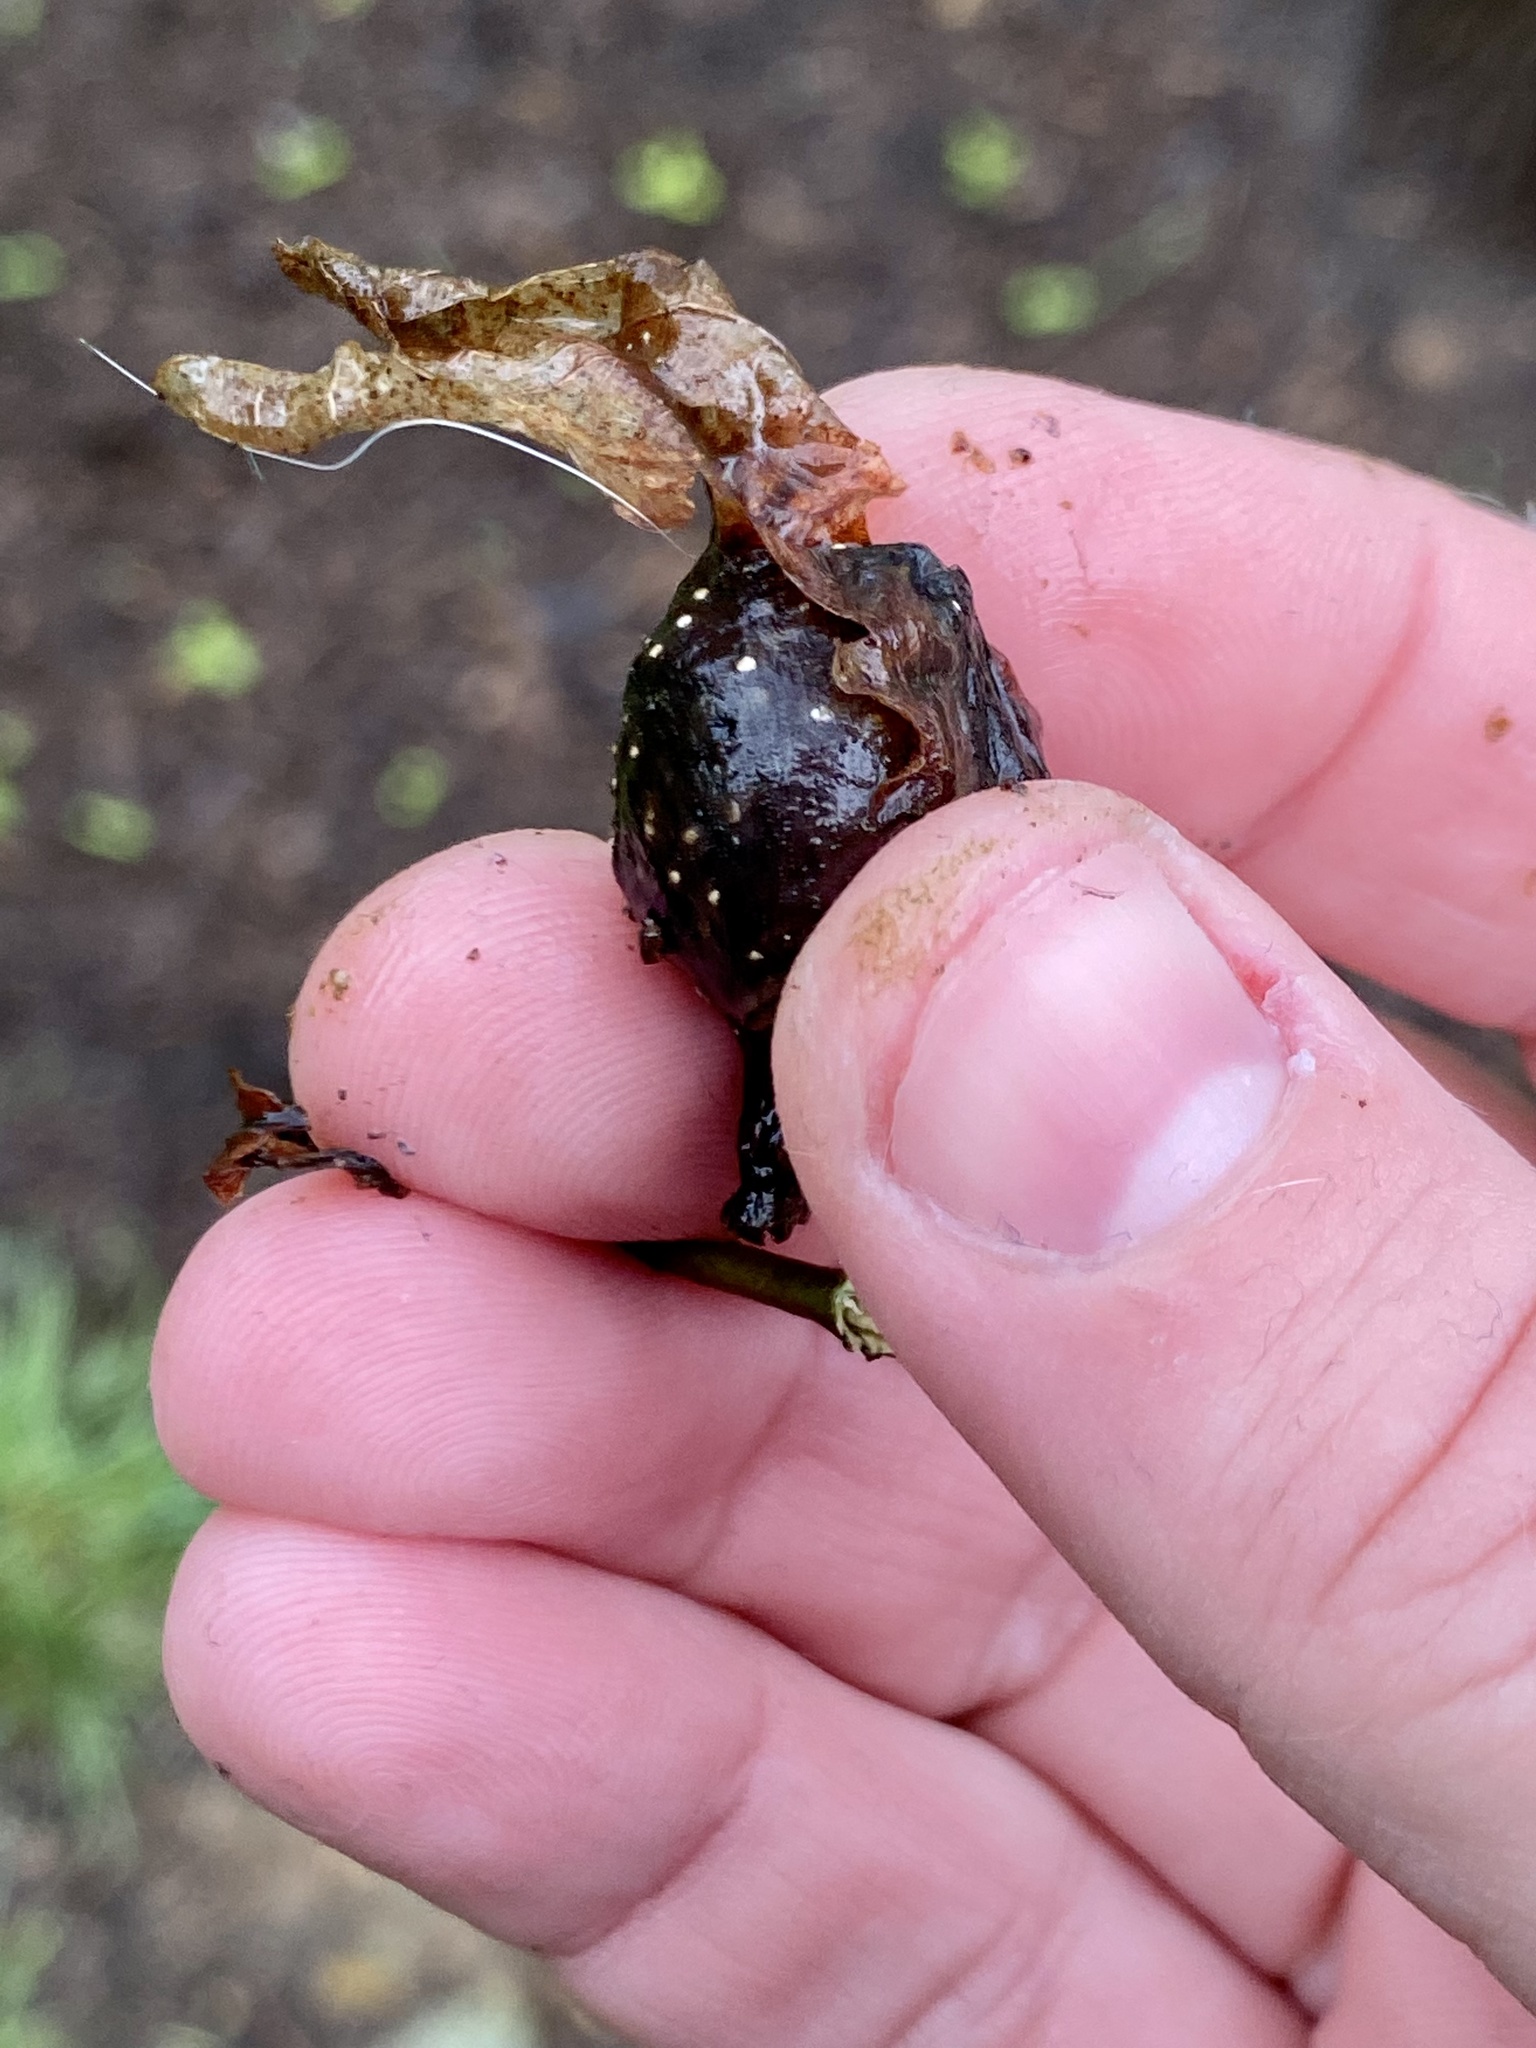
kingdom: Animalia
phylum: Arthropoda
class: Insecta
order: Hymenoptera
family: Cynipidae
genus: Andricus
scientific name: Andricus
